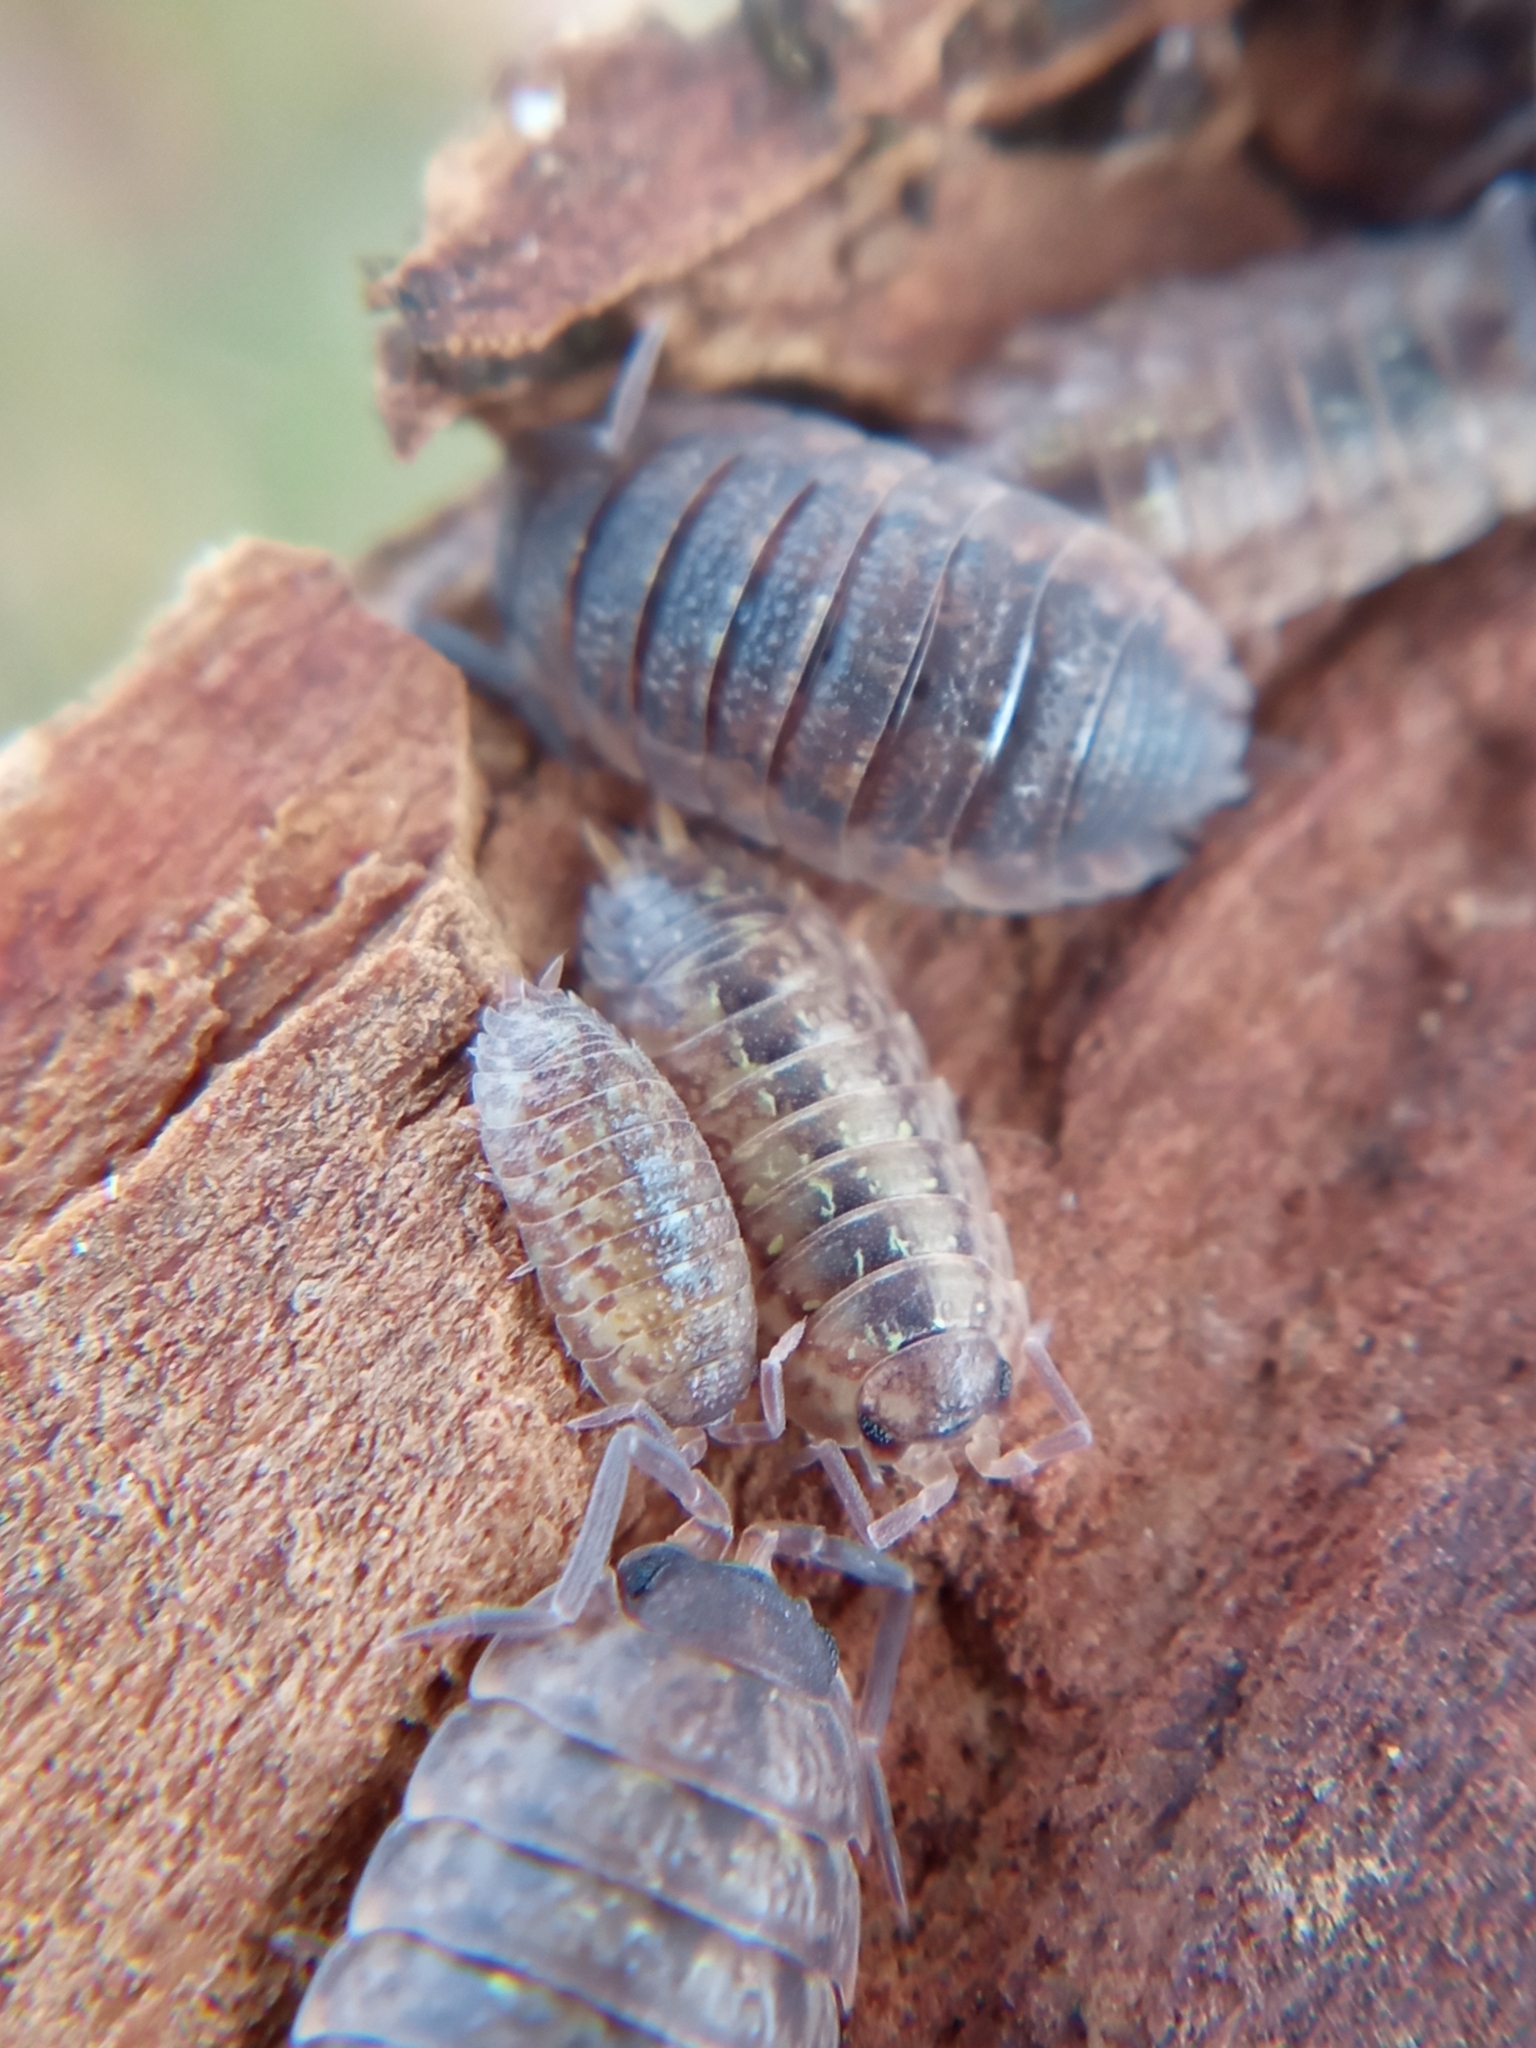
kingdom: Animalia
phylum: Arthropoda
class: Malacostraca
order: Isopoda
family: Porcellionidae
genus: Porcellio
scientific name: Porcellio scaber
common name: Common rough woodlouse
